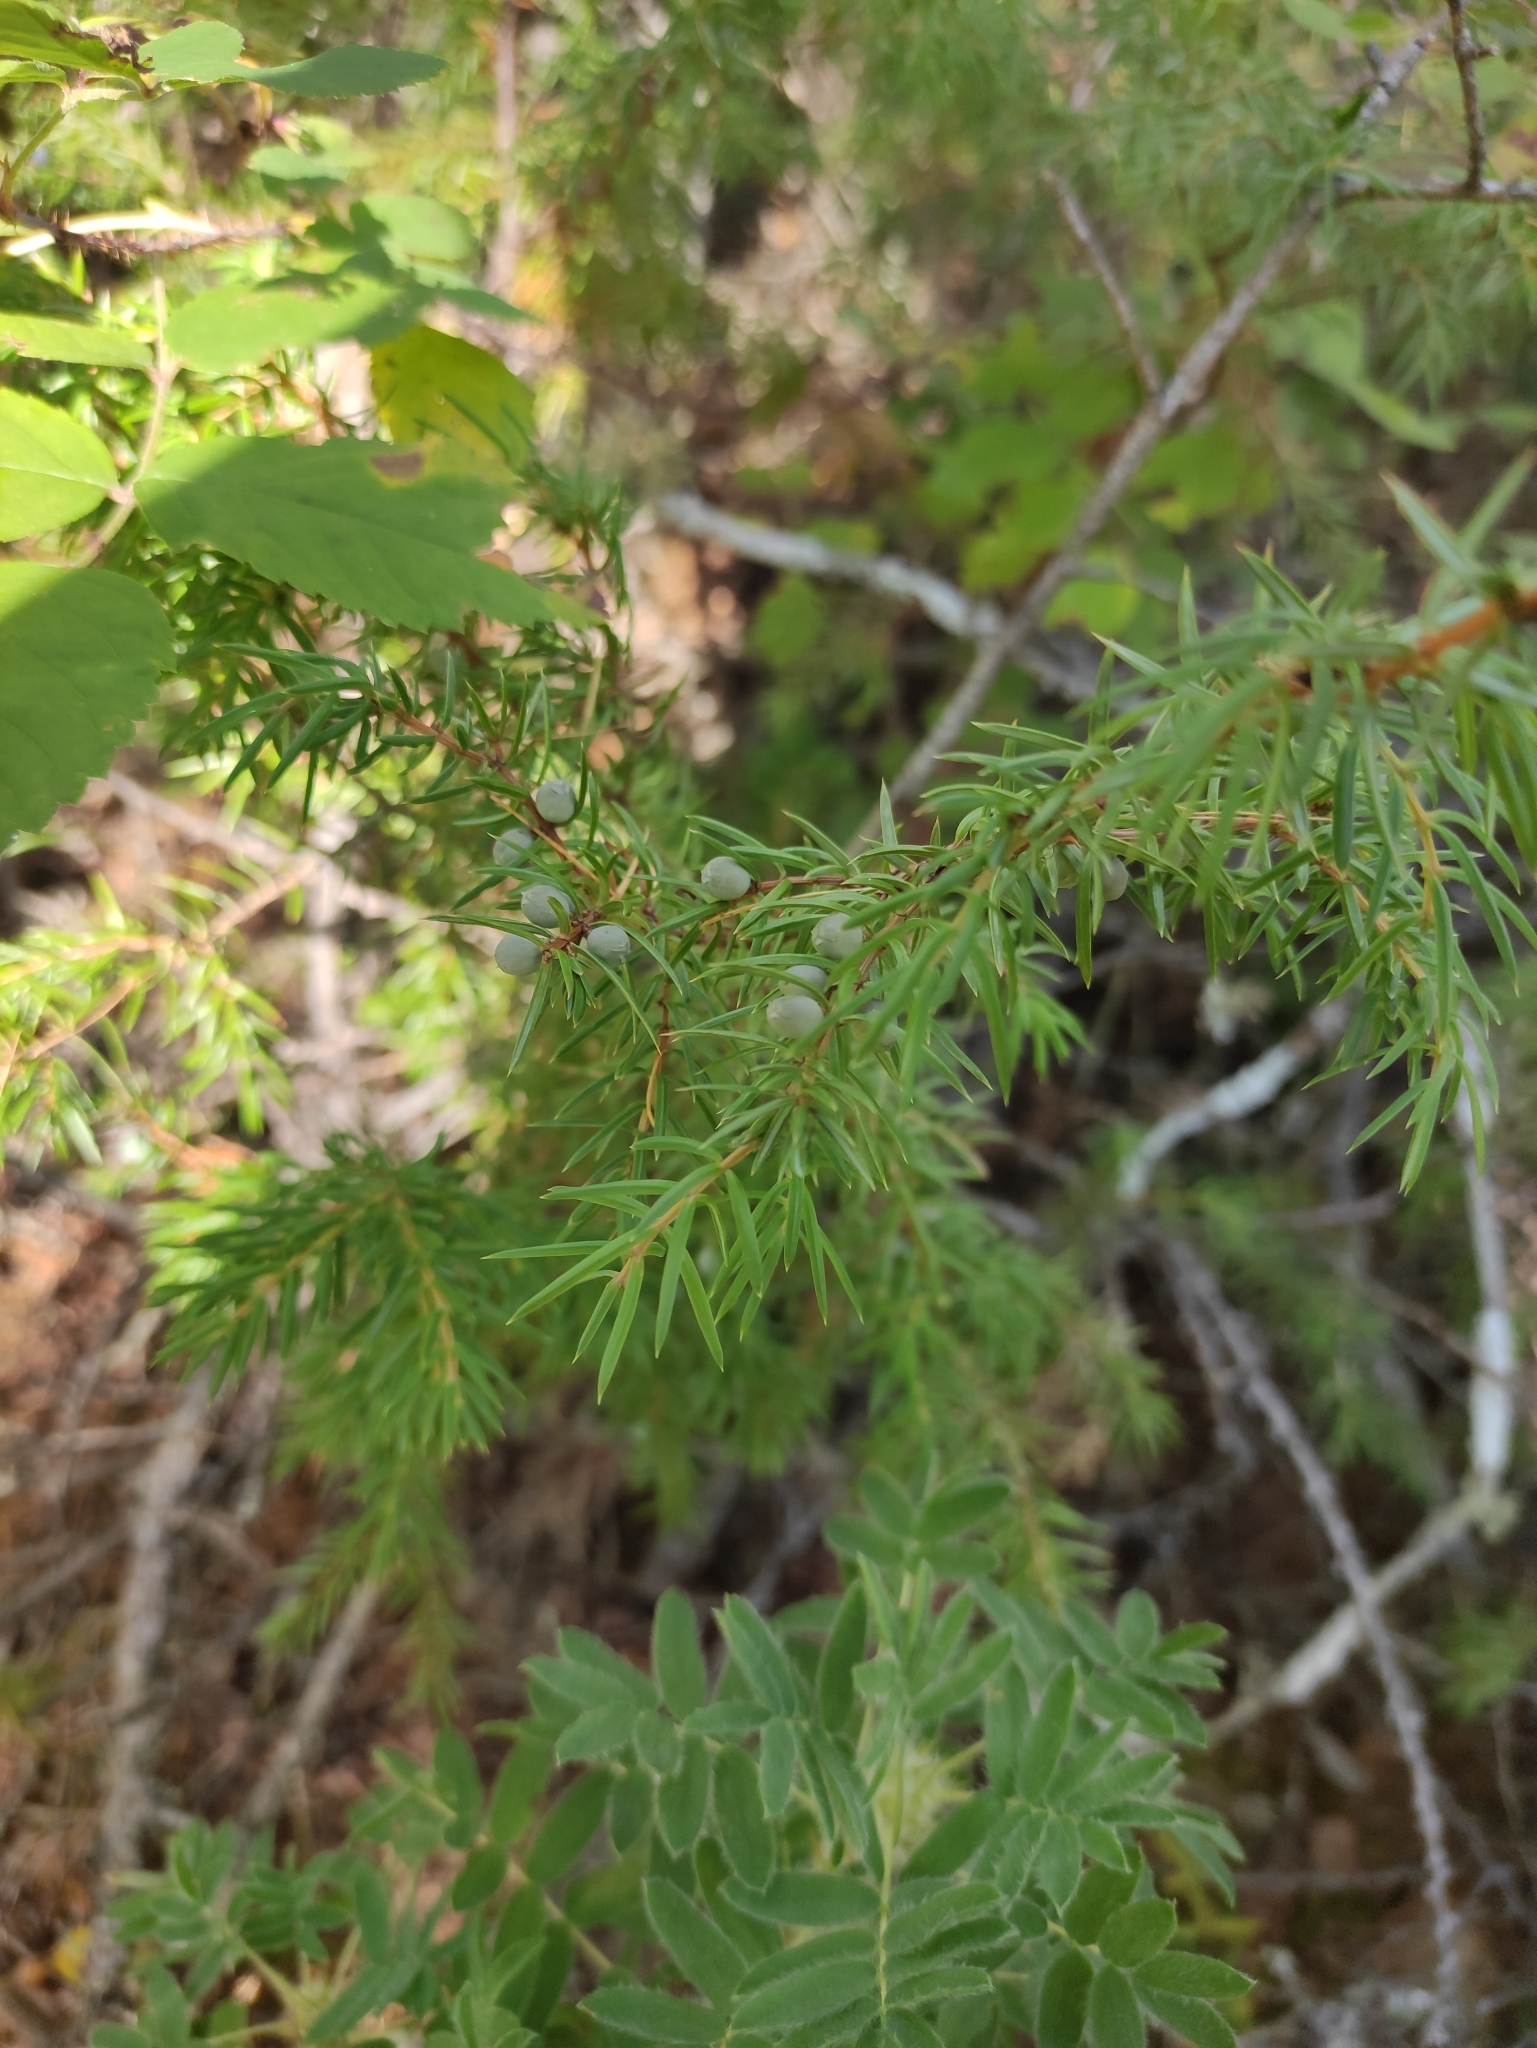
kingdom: Plantae
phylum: Tracheophyta
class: Pinopsida
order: Pinales
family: Cupressaceae
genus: Juniperus
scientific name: Juniperus communis
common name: Common juniper
